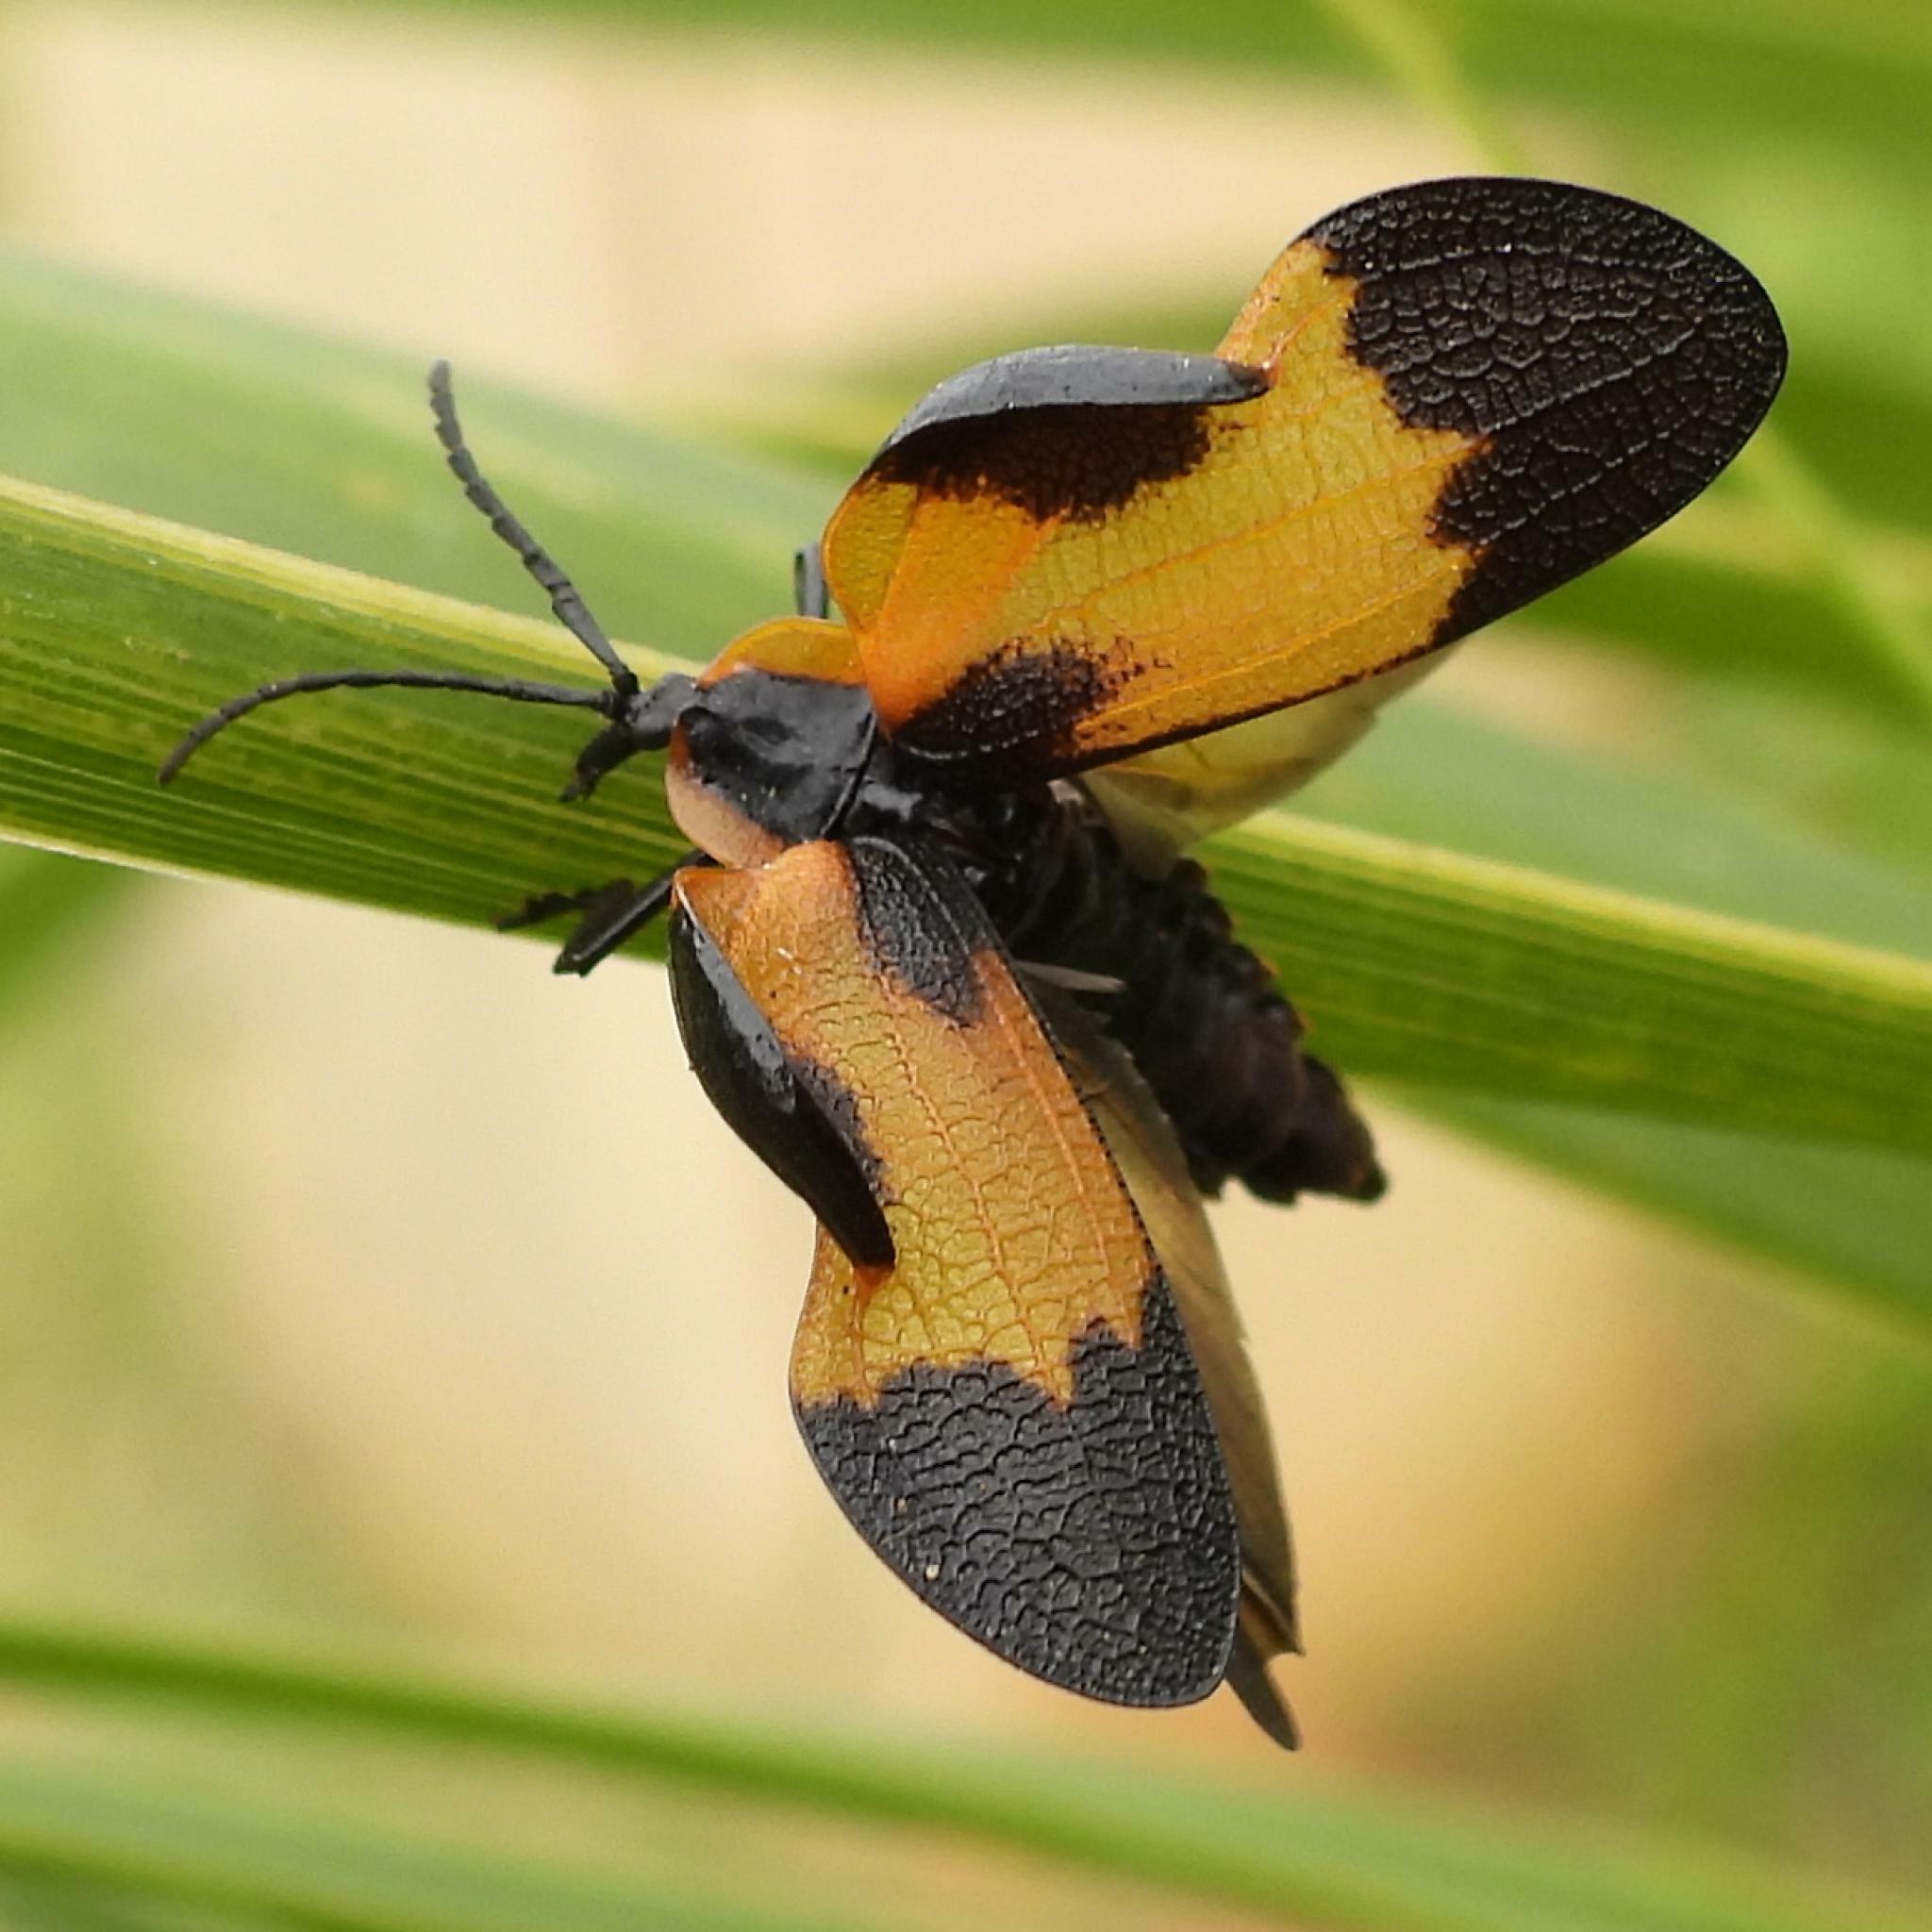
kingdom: Animalia
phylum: Arthropoda
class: Insecta
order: Coleoptera
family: Lycidae
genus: Lycus
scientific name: Lycus
